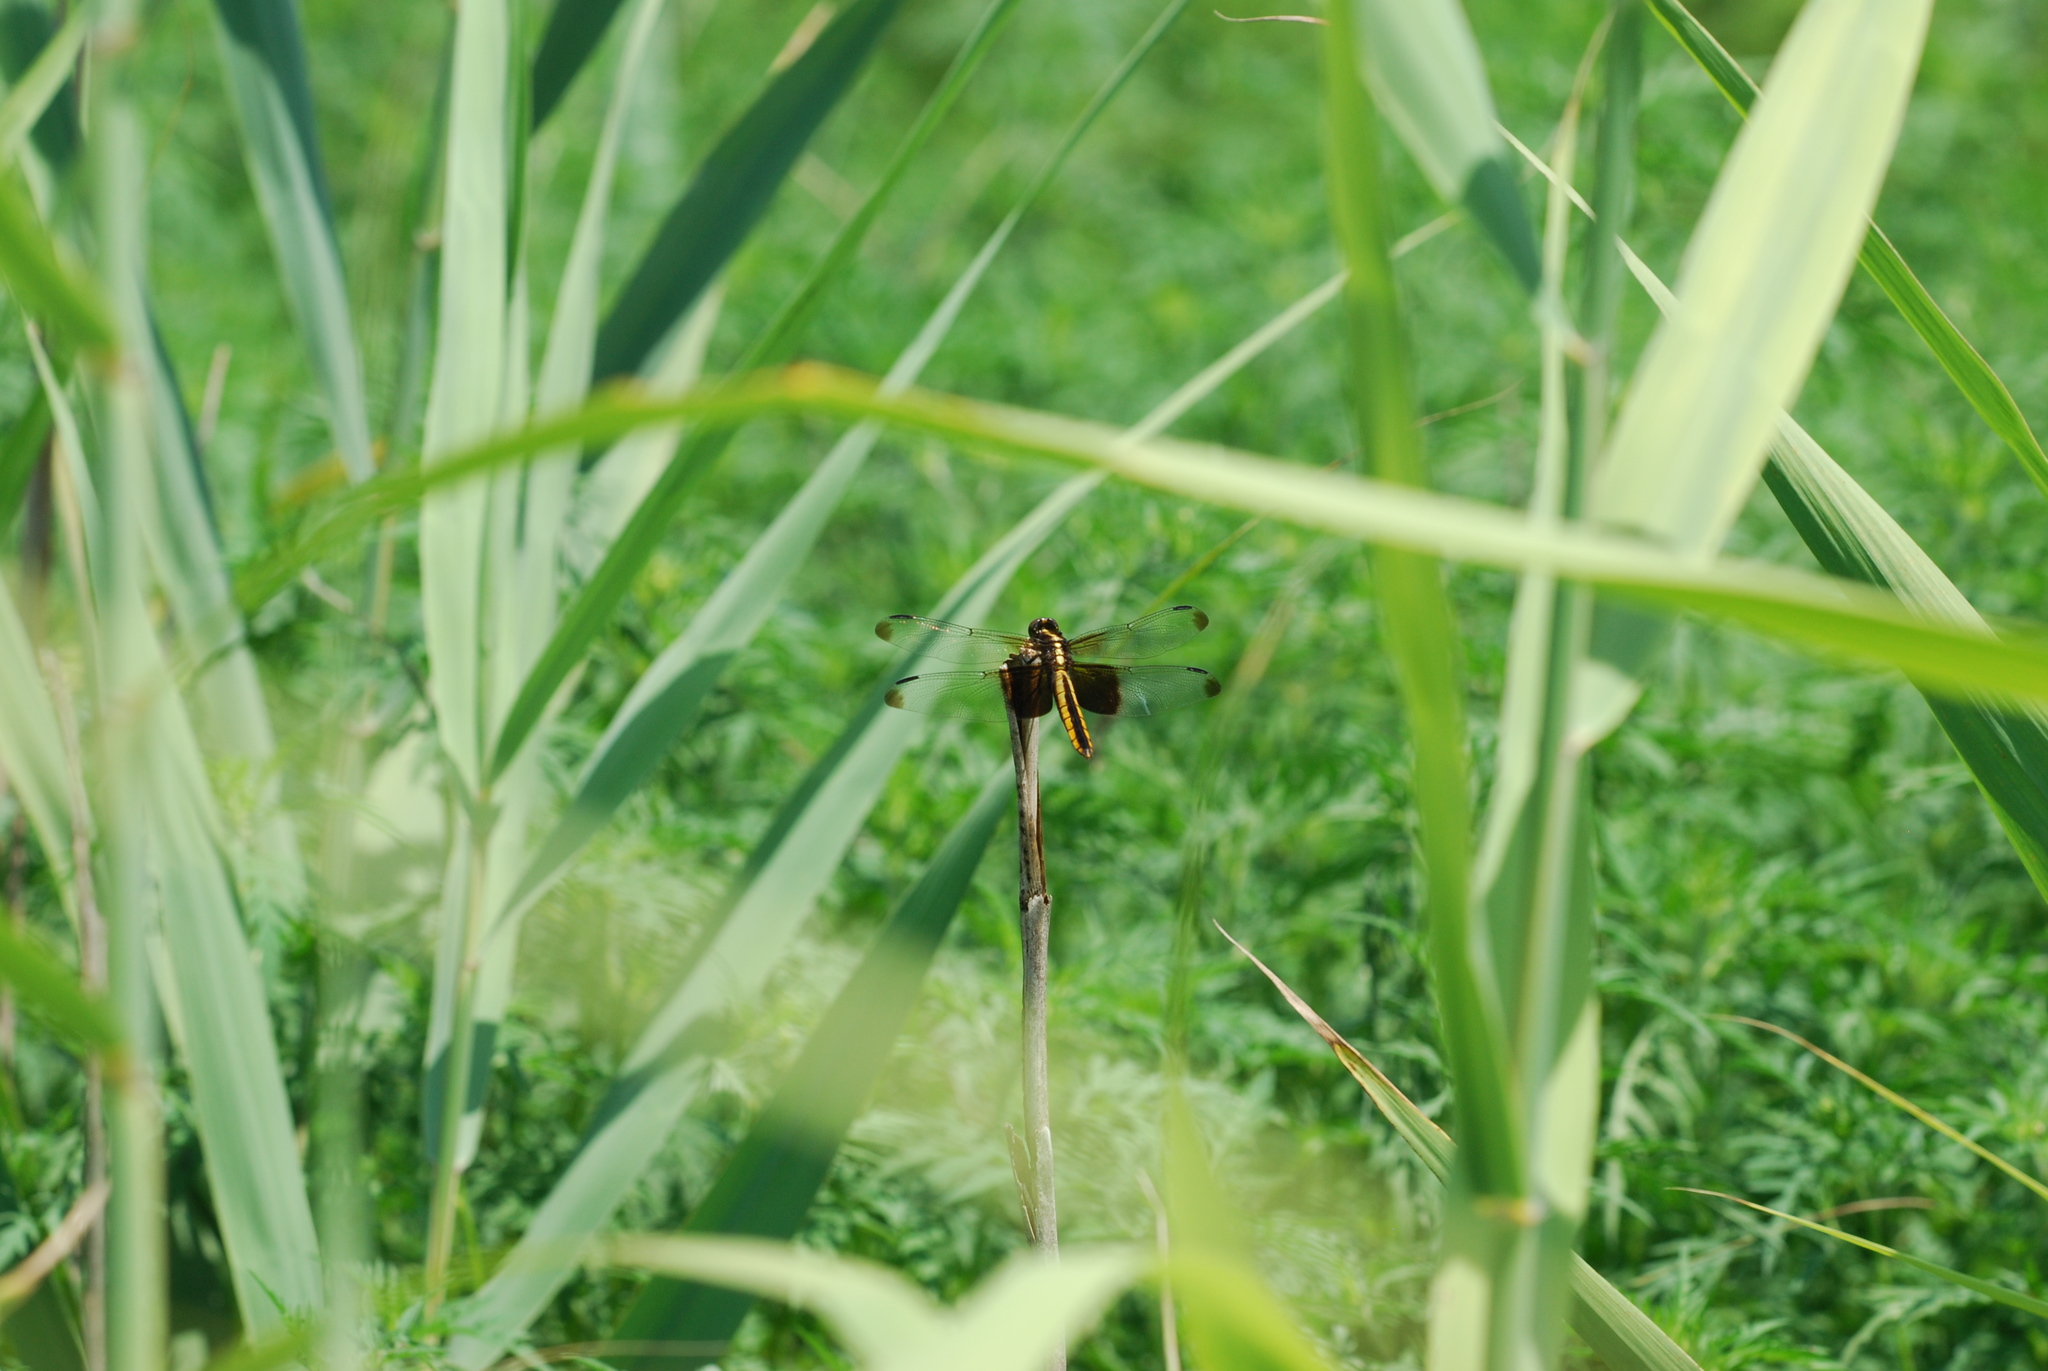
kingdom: Animalia
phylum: Arthropoda
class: Insecta
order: Odonata
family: Libellulidae
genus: Libellula
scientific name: Libellula luctuosa
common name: Widow skimmer
